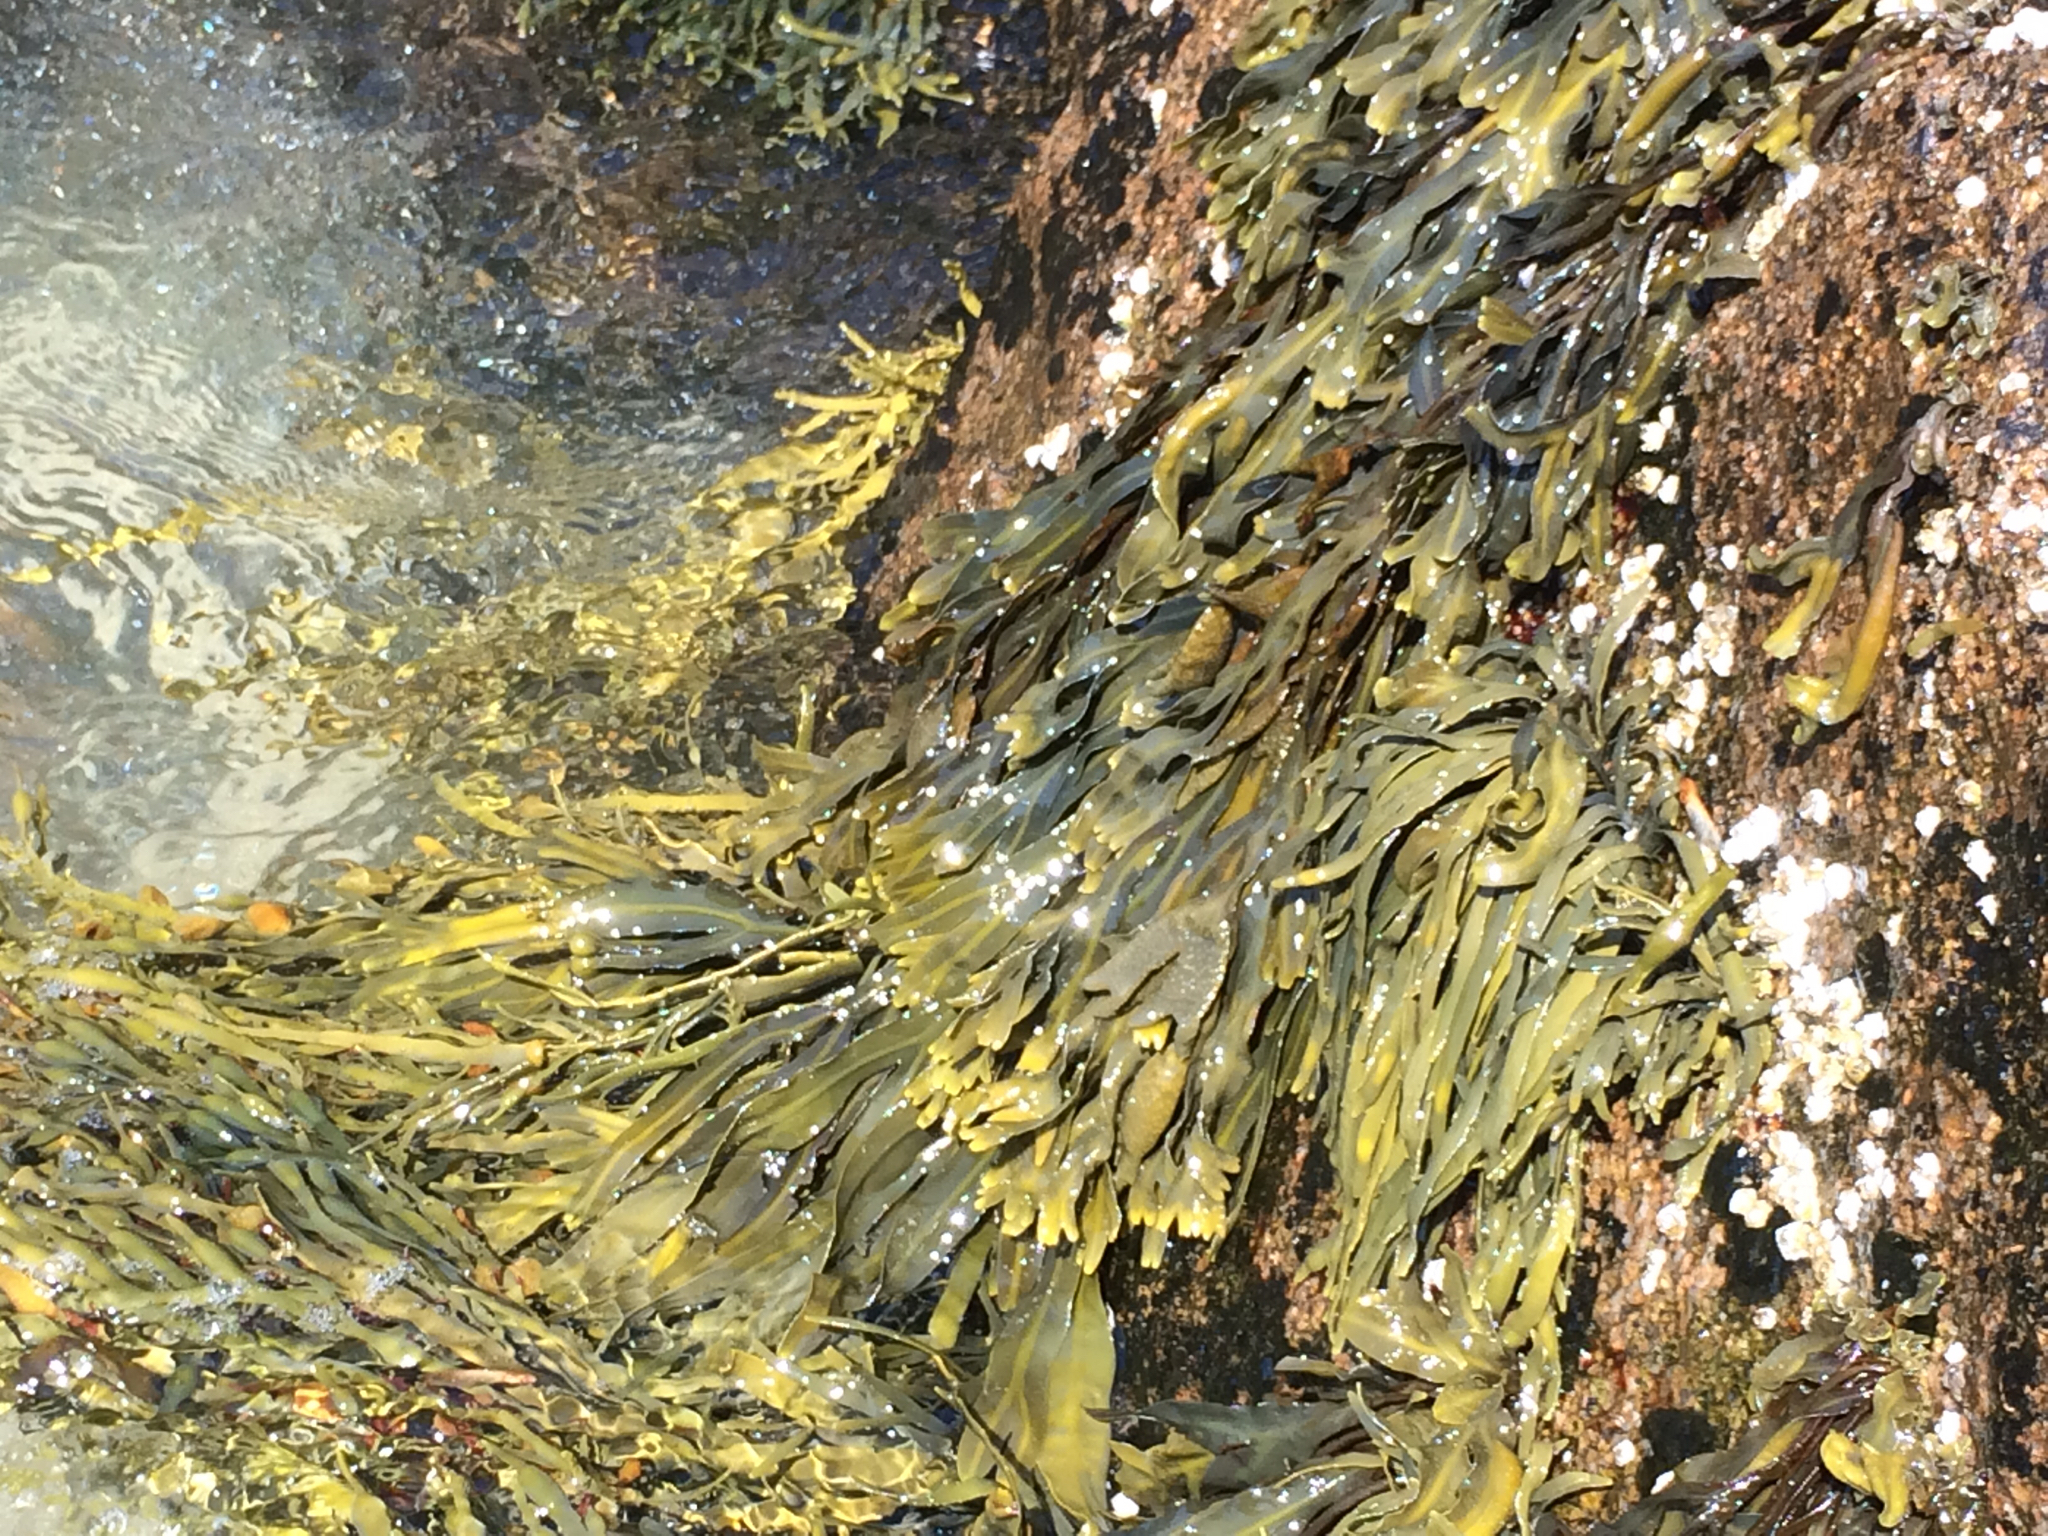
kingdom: Chromista
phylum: Ochrophyta
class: Phaeophyceae
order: Fucales
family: Fucaceae
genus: Fucus
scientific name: Fucus
